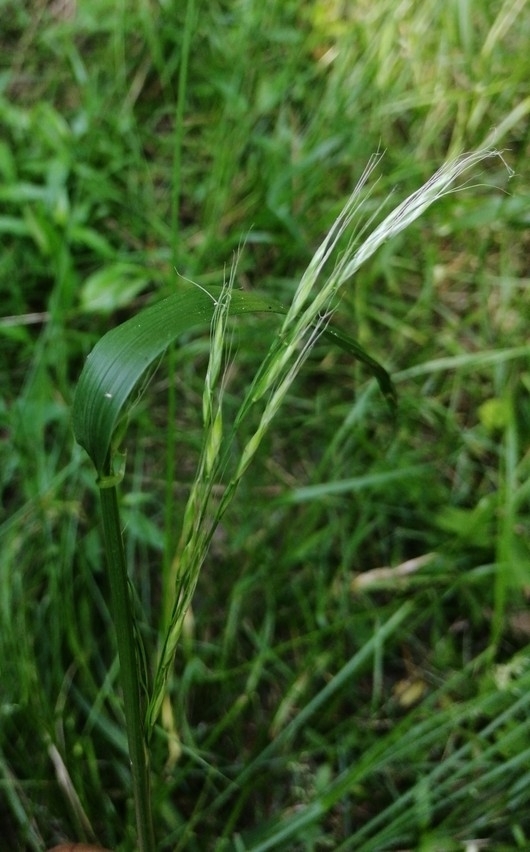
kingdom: Plantae
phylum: Tracheophyta
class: Liliopsida
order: Poales
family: Poaceae
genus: Lolium
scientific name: Lolium giganteum
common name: Giant fescue
